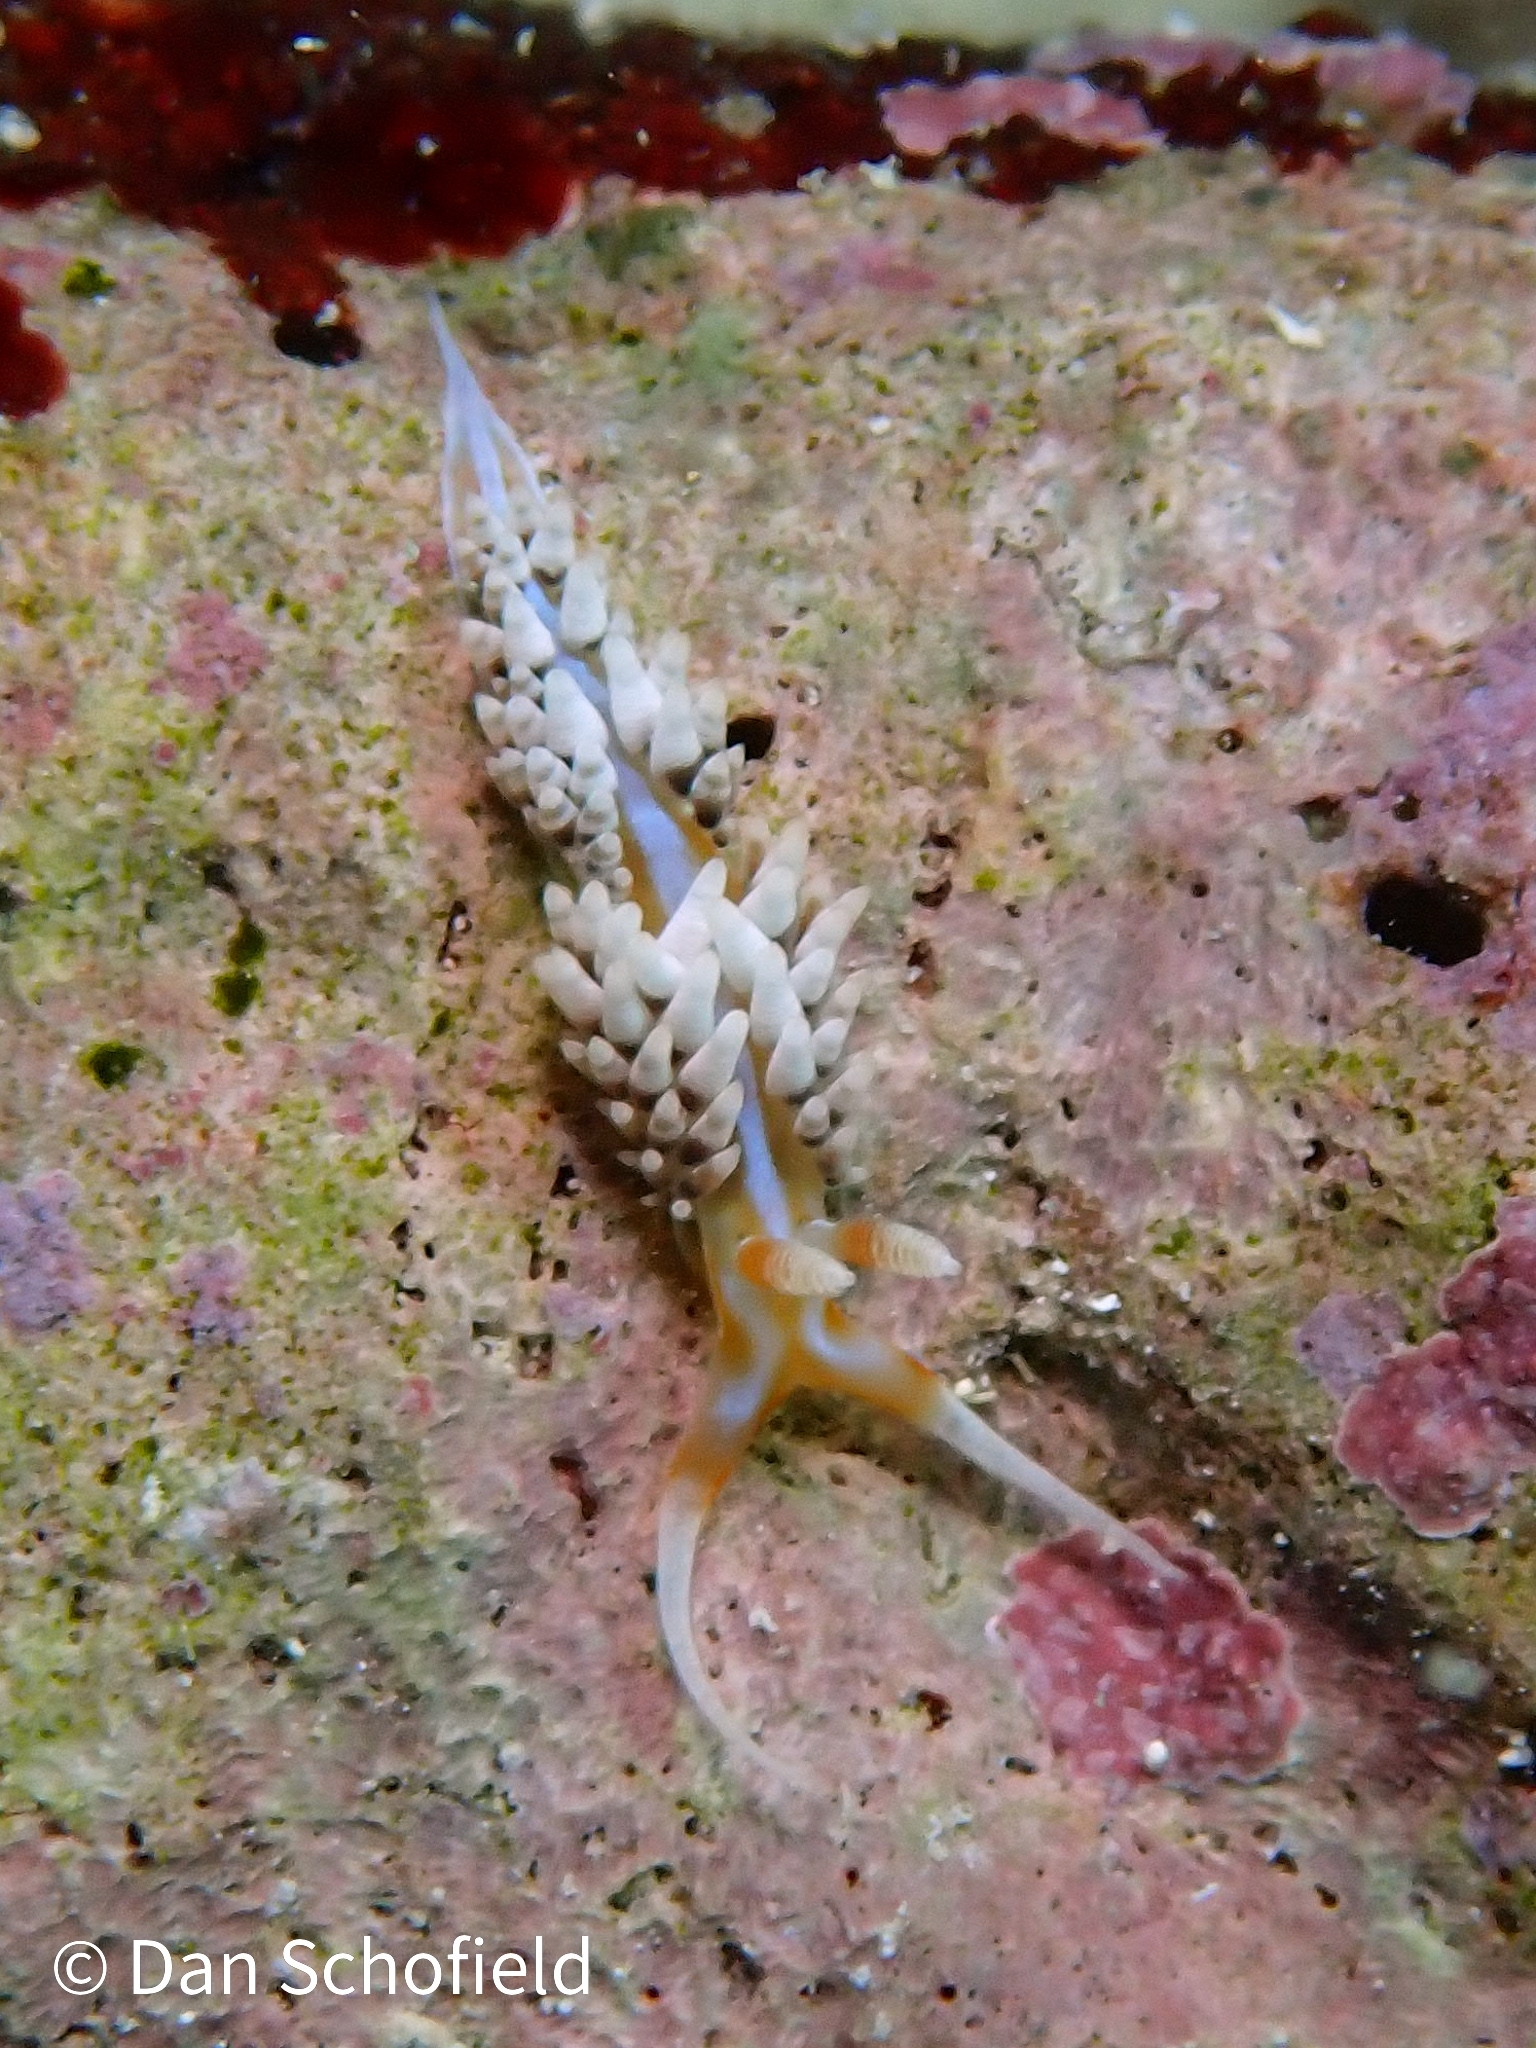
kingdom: Animalia
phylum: Mollusca
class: Gastropoda
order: Nudibranchia
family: Facelinidae
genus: Phidiana
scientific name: Phidiana lynceus
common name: Lynx nudibranch
